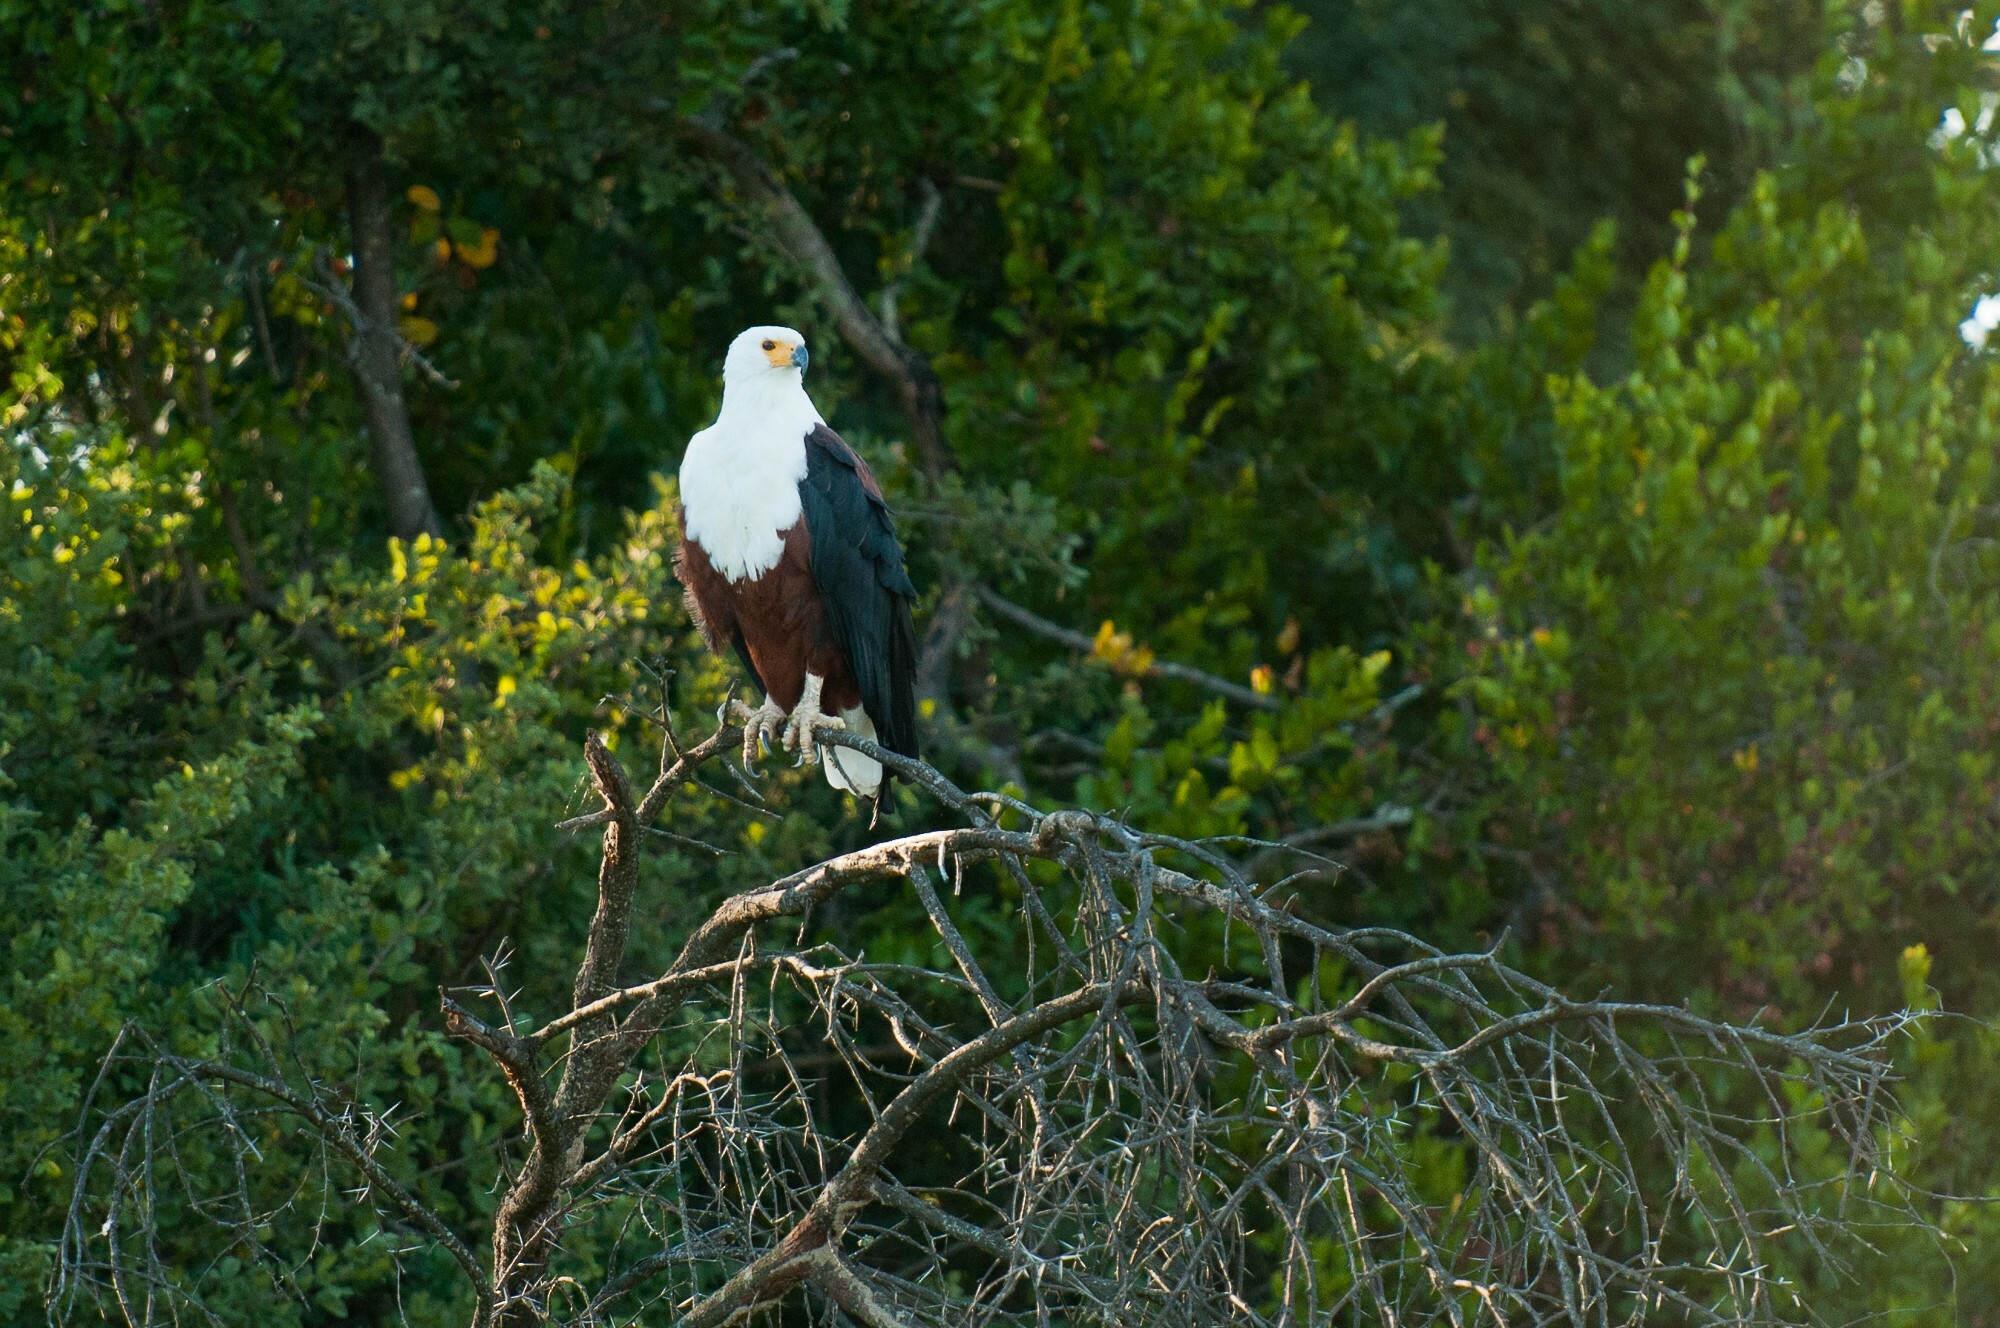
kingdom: Animalia
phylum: Chordata
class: Aves
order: Accipitriformes
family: Accipitridae
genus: Haliaeetus
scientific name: Haliaeetus vocifer
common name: African fish eagle
